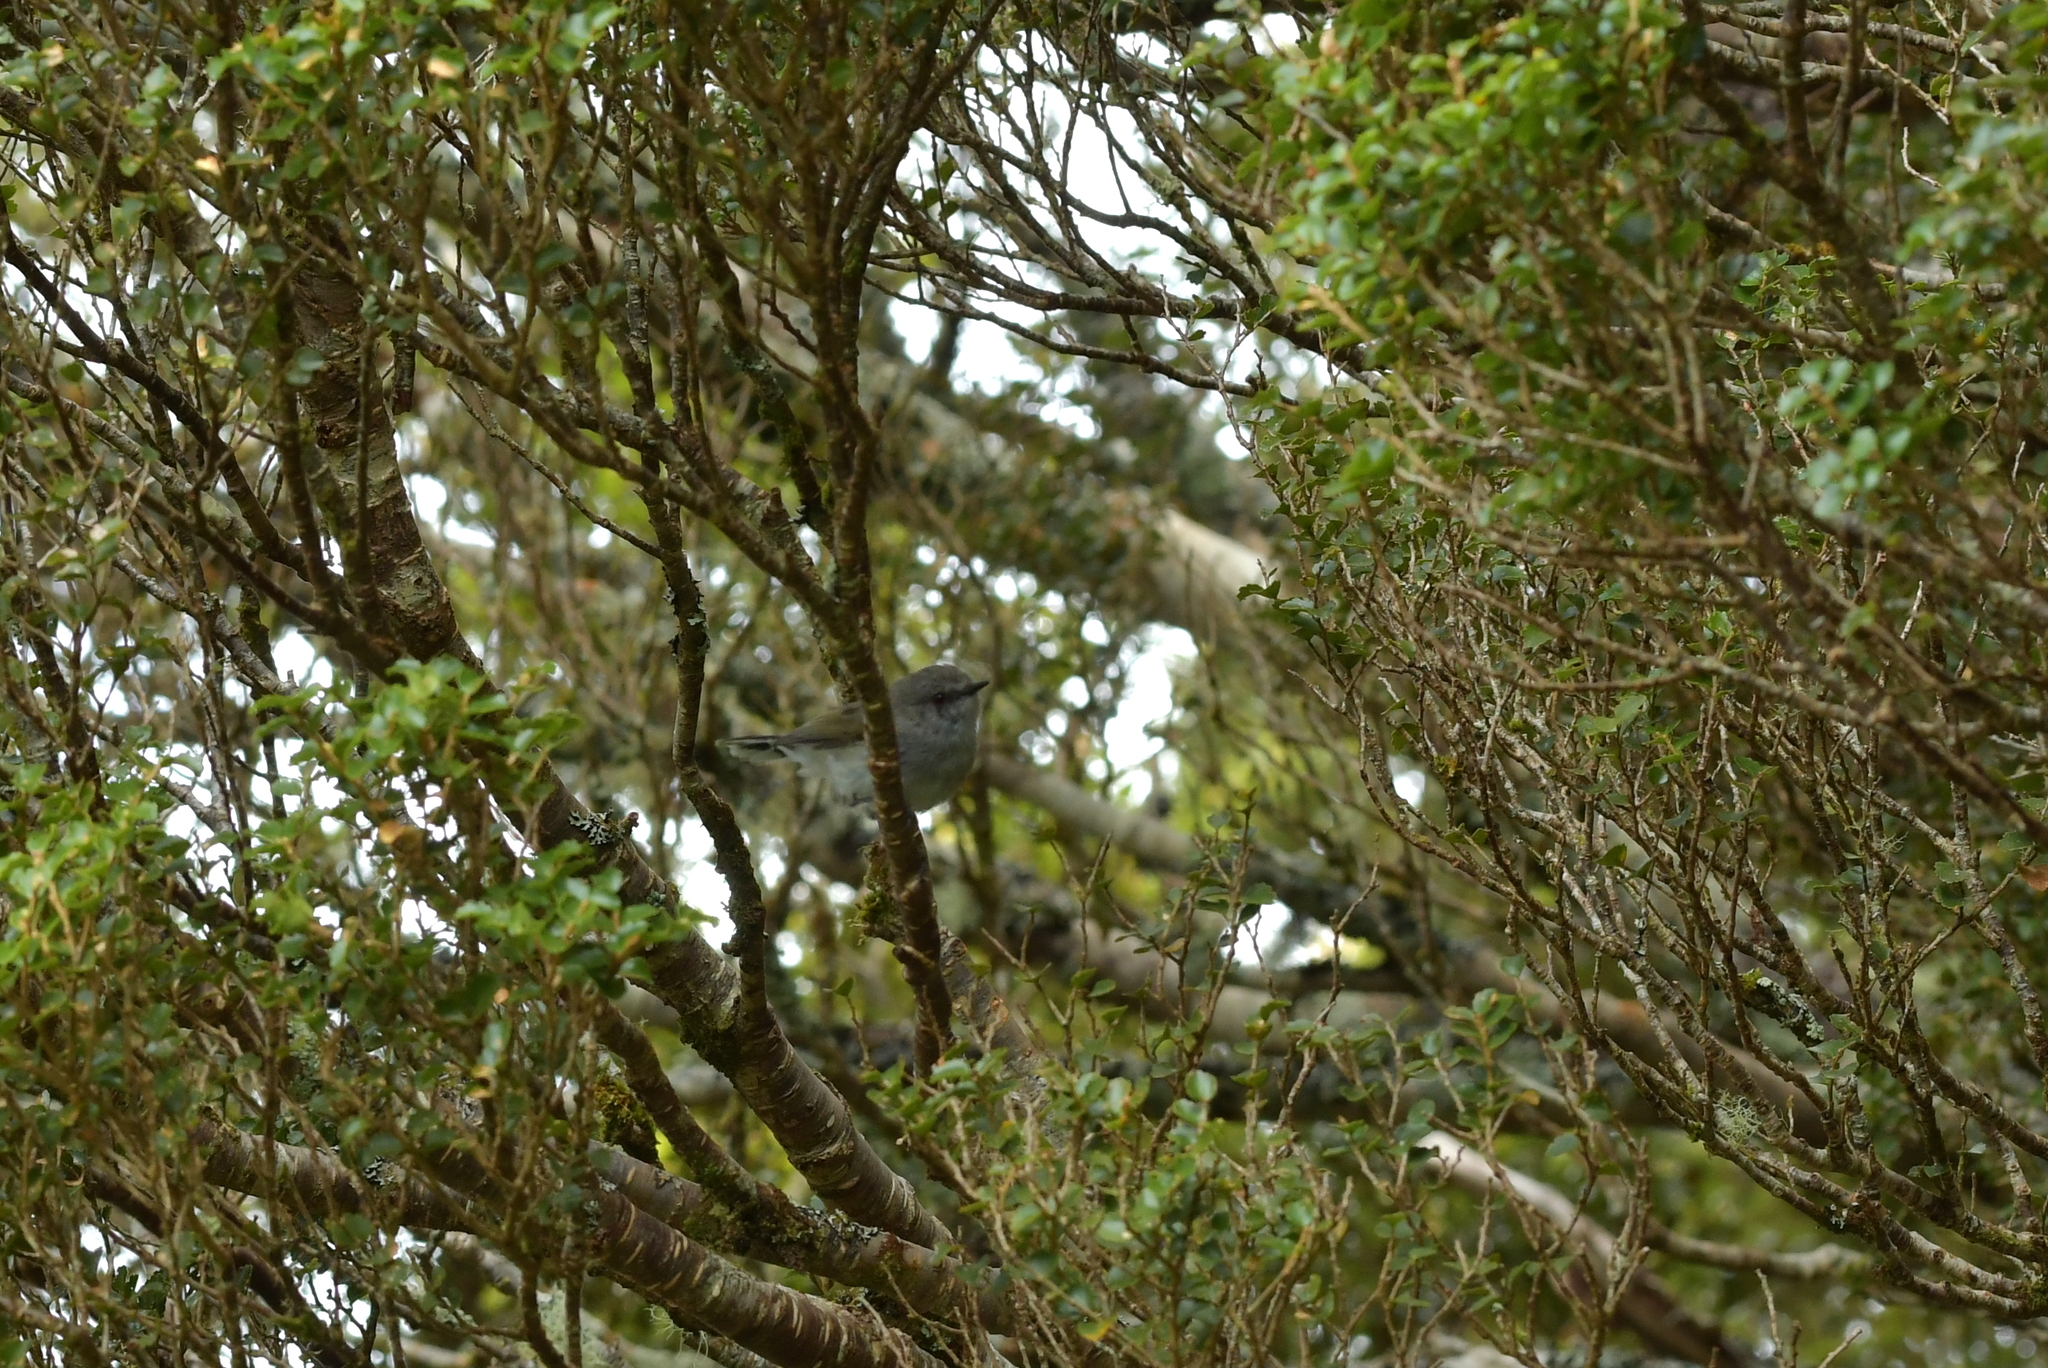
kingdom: Animalia
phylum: Chordata
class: Aves
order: Passeriformes
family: Acanthizidae
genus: Gerygone
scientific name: Gerygone igata
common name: Grey gerygone
